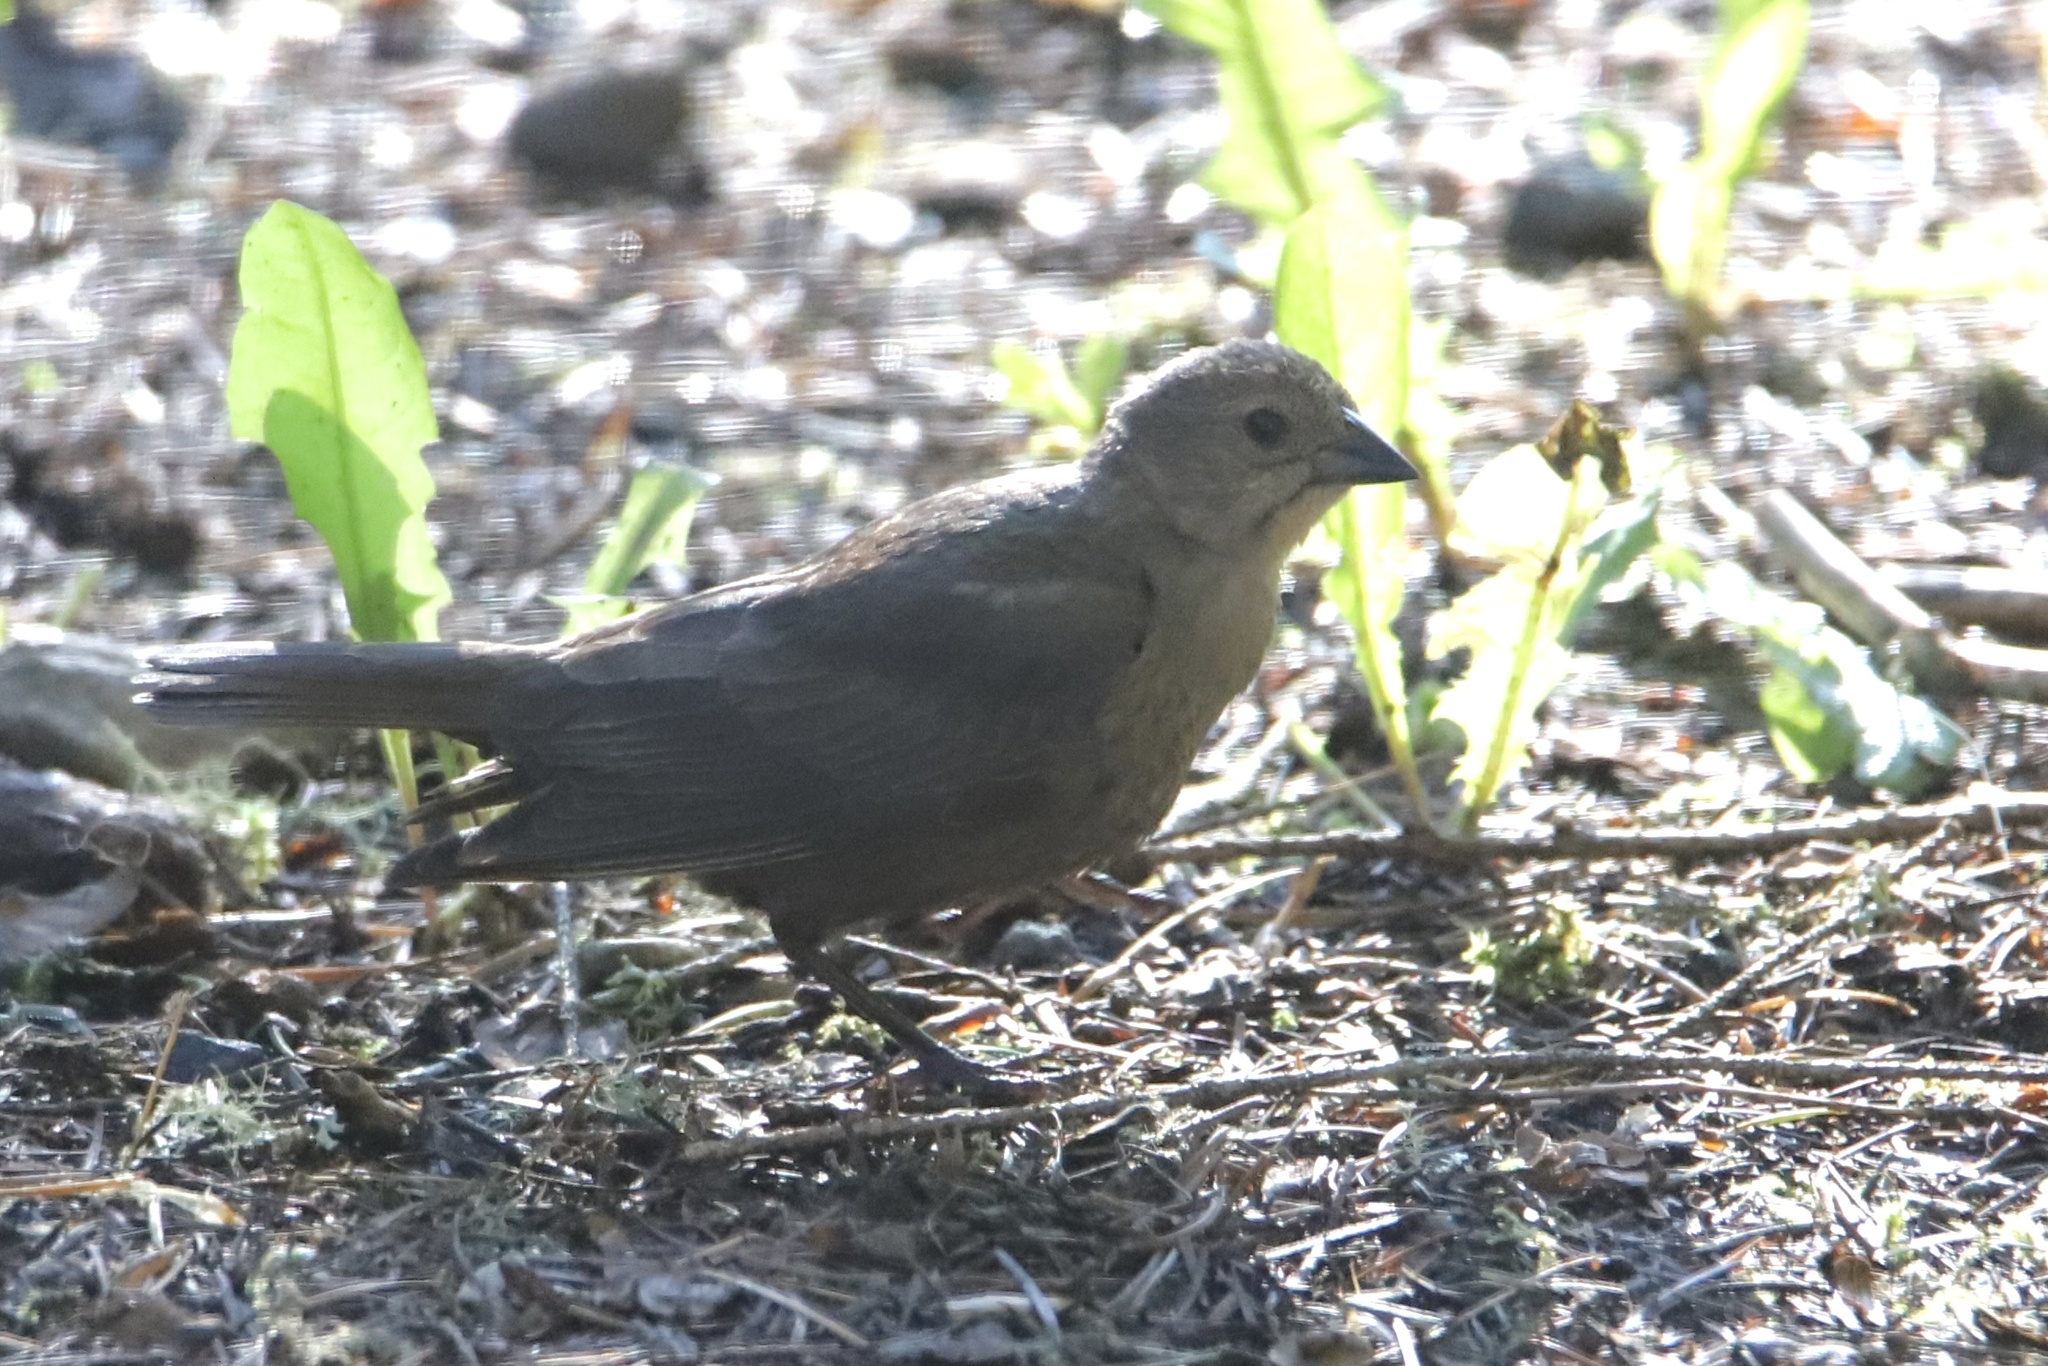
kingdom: Animalia
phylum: Chordata
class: Aves
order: Passeriformes
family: Icteridae
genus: Molothrus
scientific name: Molothrus ater
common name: Brown-headed cowbird
